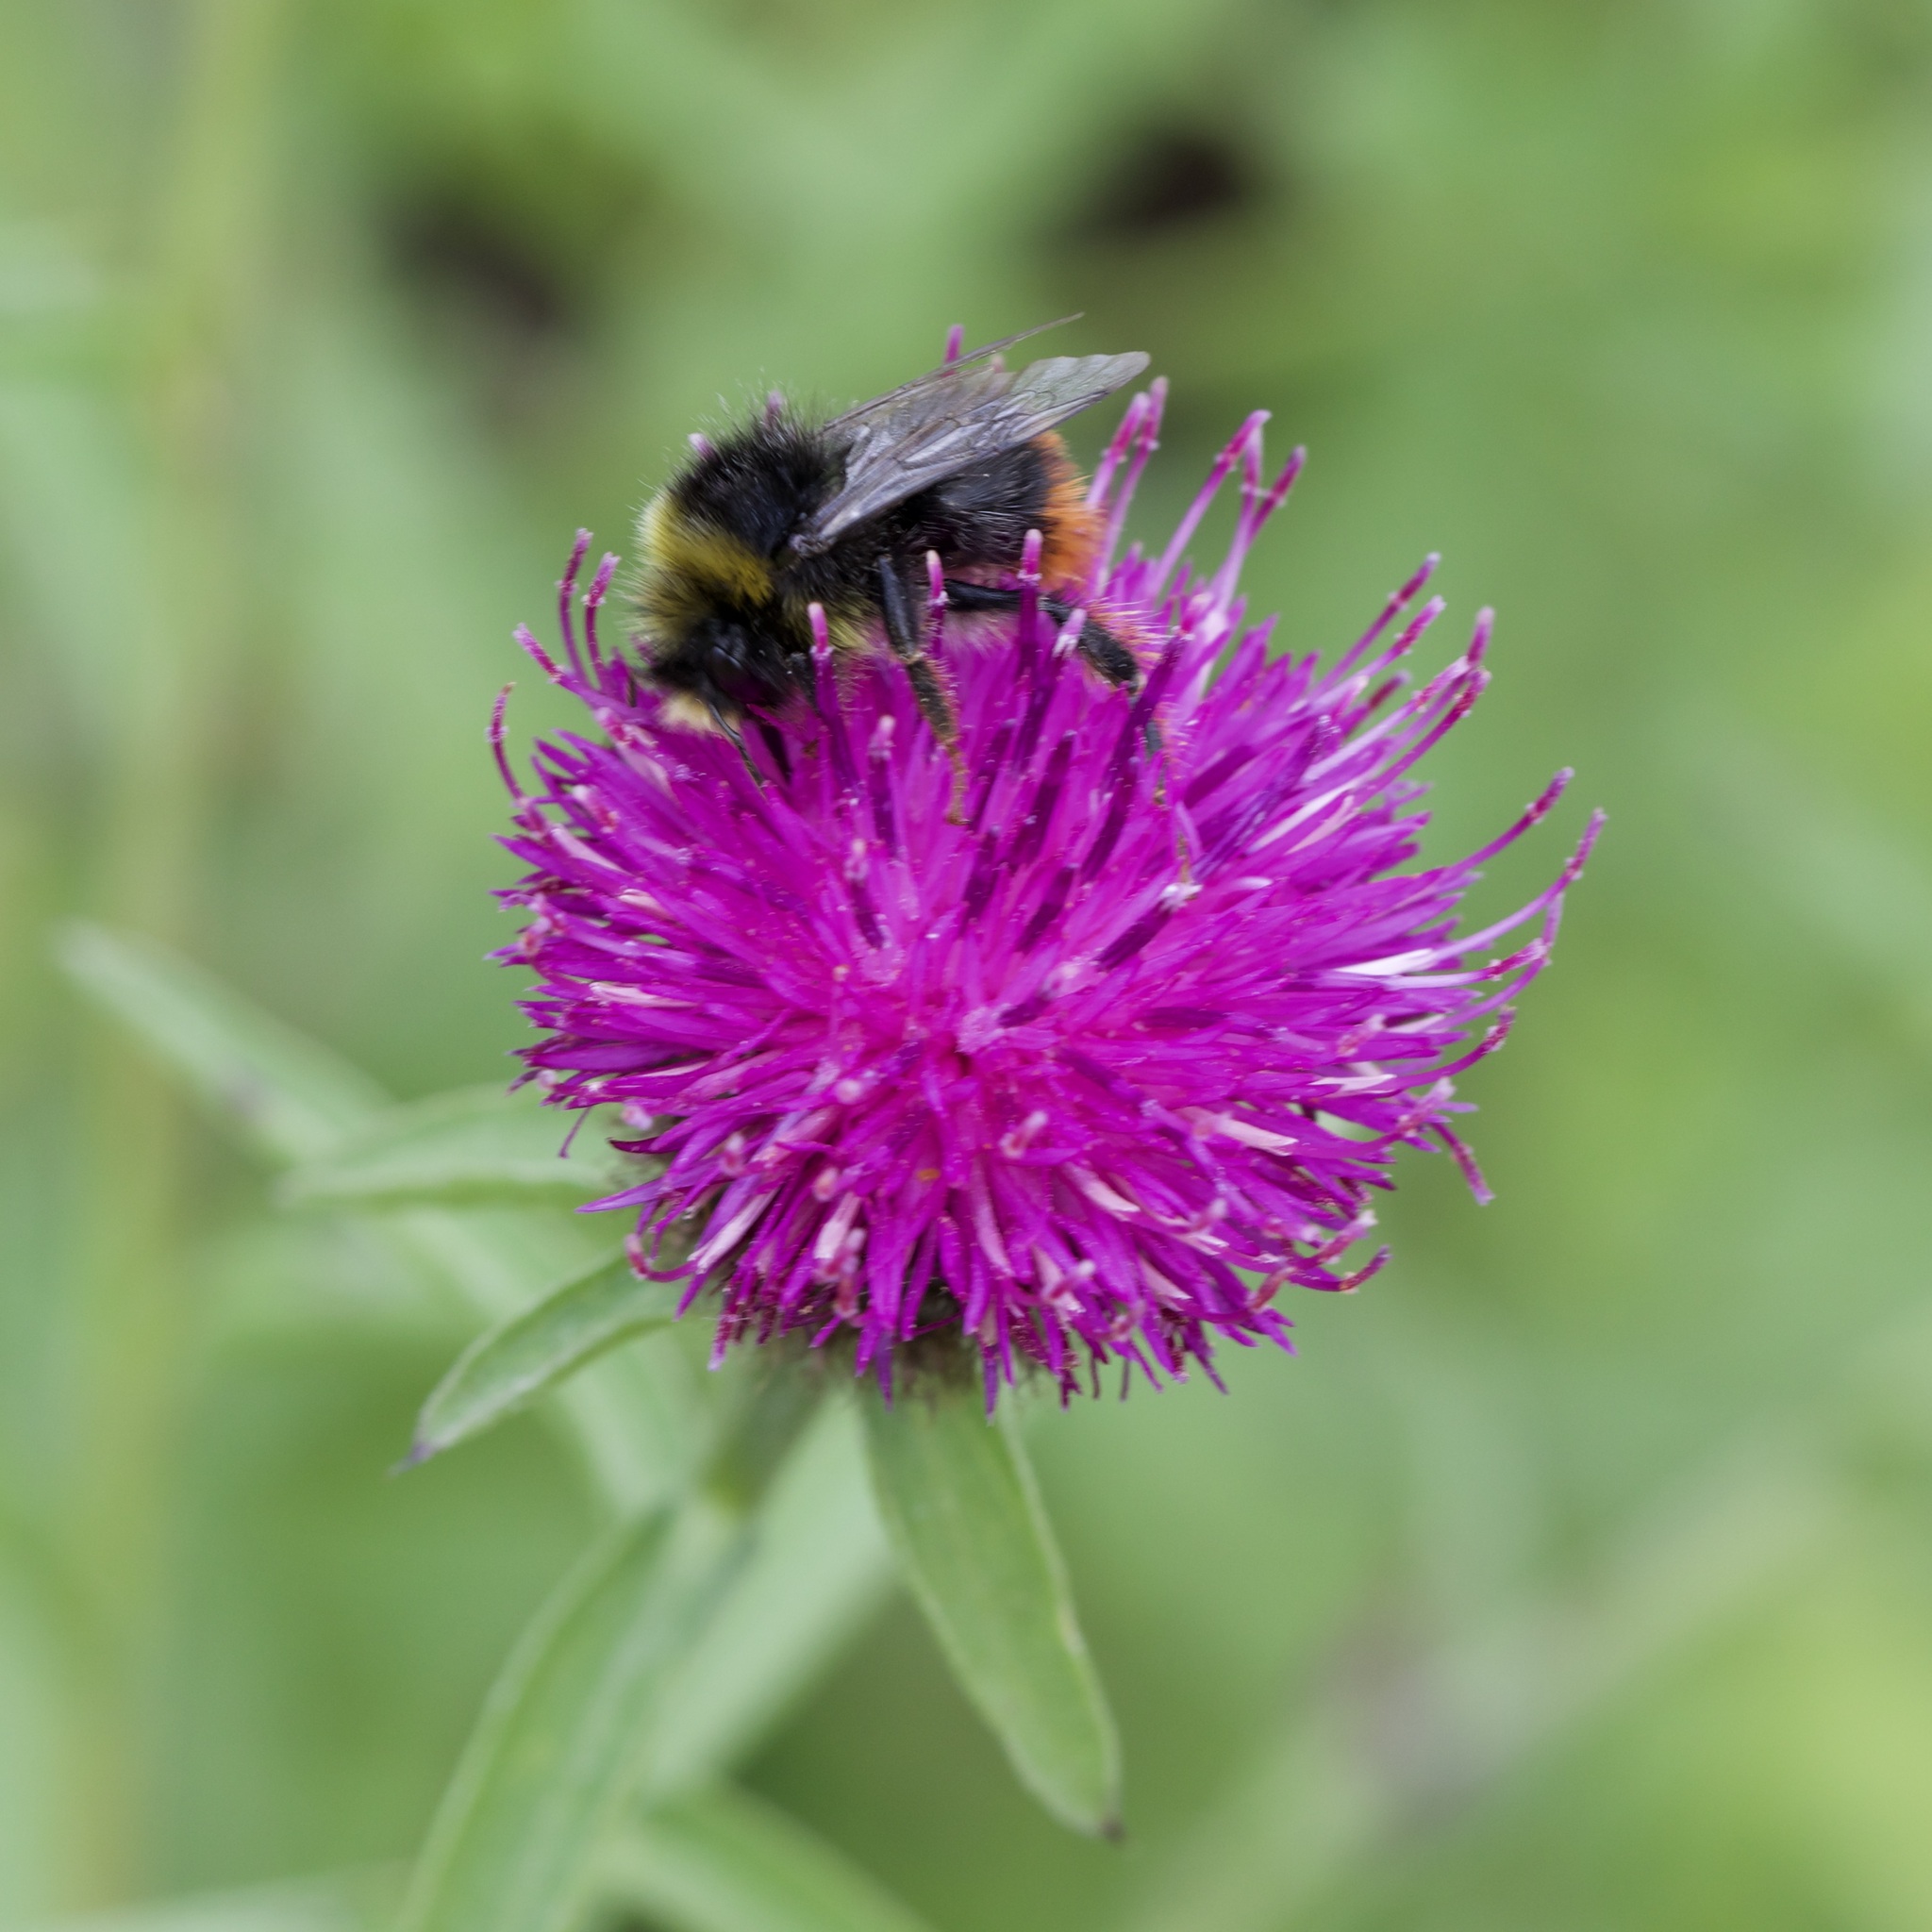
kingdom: Animalia
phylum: Arthropoda
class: Insecta
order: Hymenoptera
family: Apidae
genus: Bombus
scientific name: Bombus lapidarius
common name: Large red-tailed humble-bee
